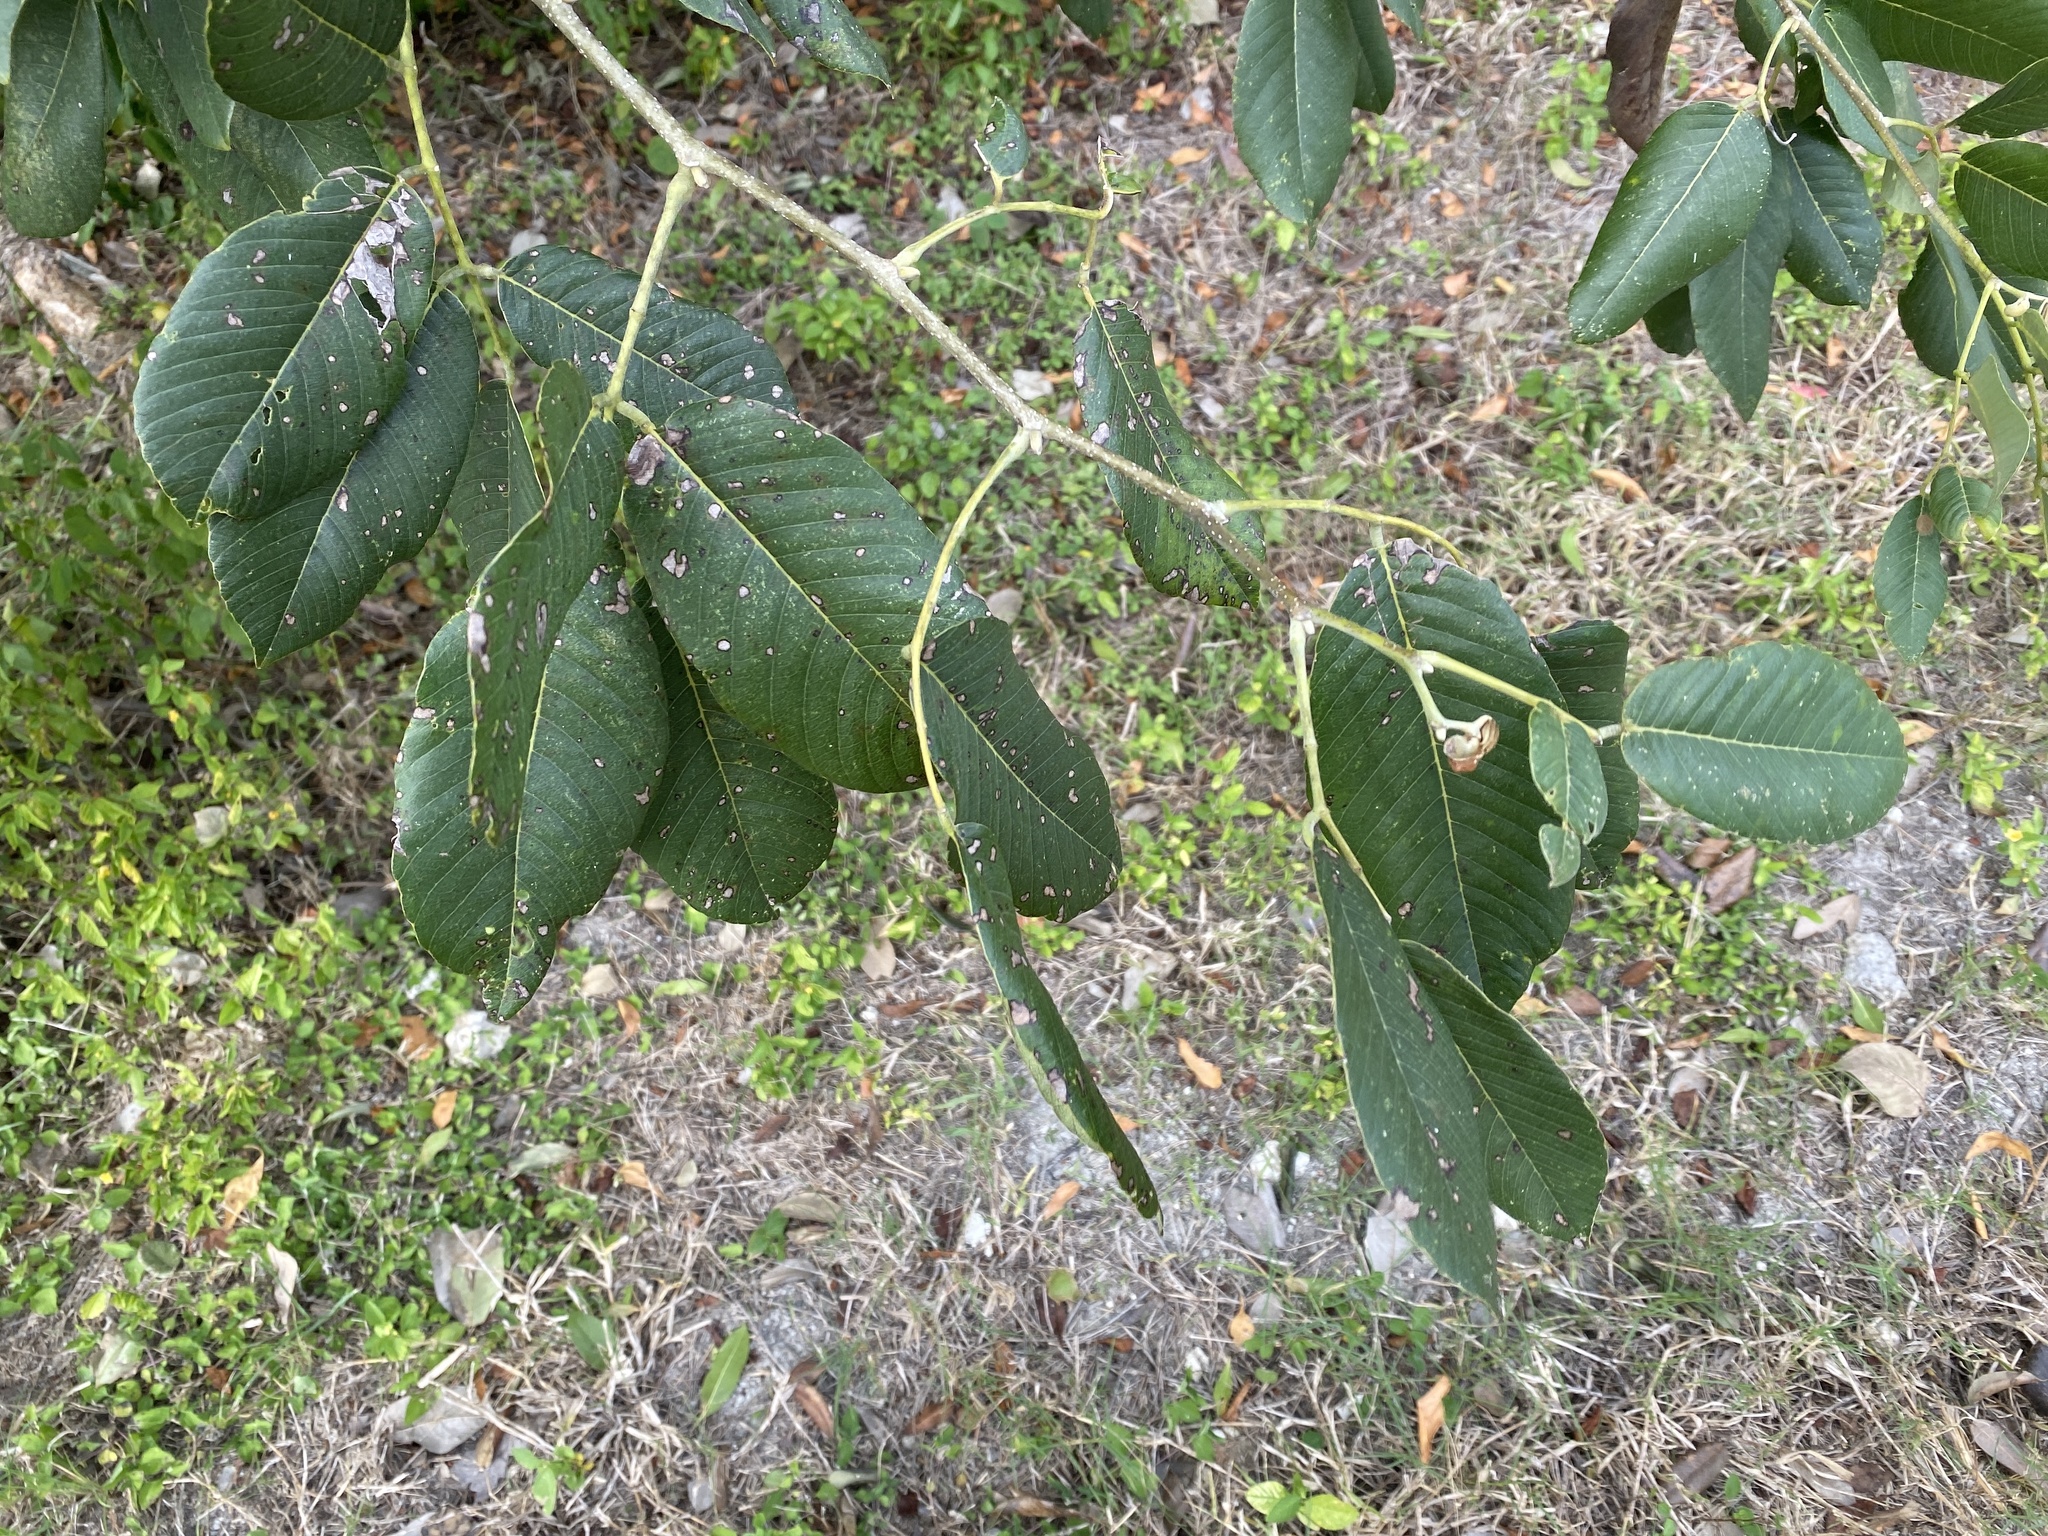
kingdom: Plantae
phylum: Tracheophyta
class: Magnoliopsida
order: Fabales
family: Fabaceae
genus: Piscidia
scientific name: Piscidia piscipula
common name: Florida fishpoison tree
